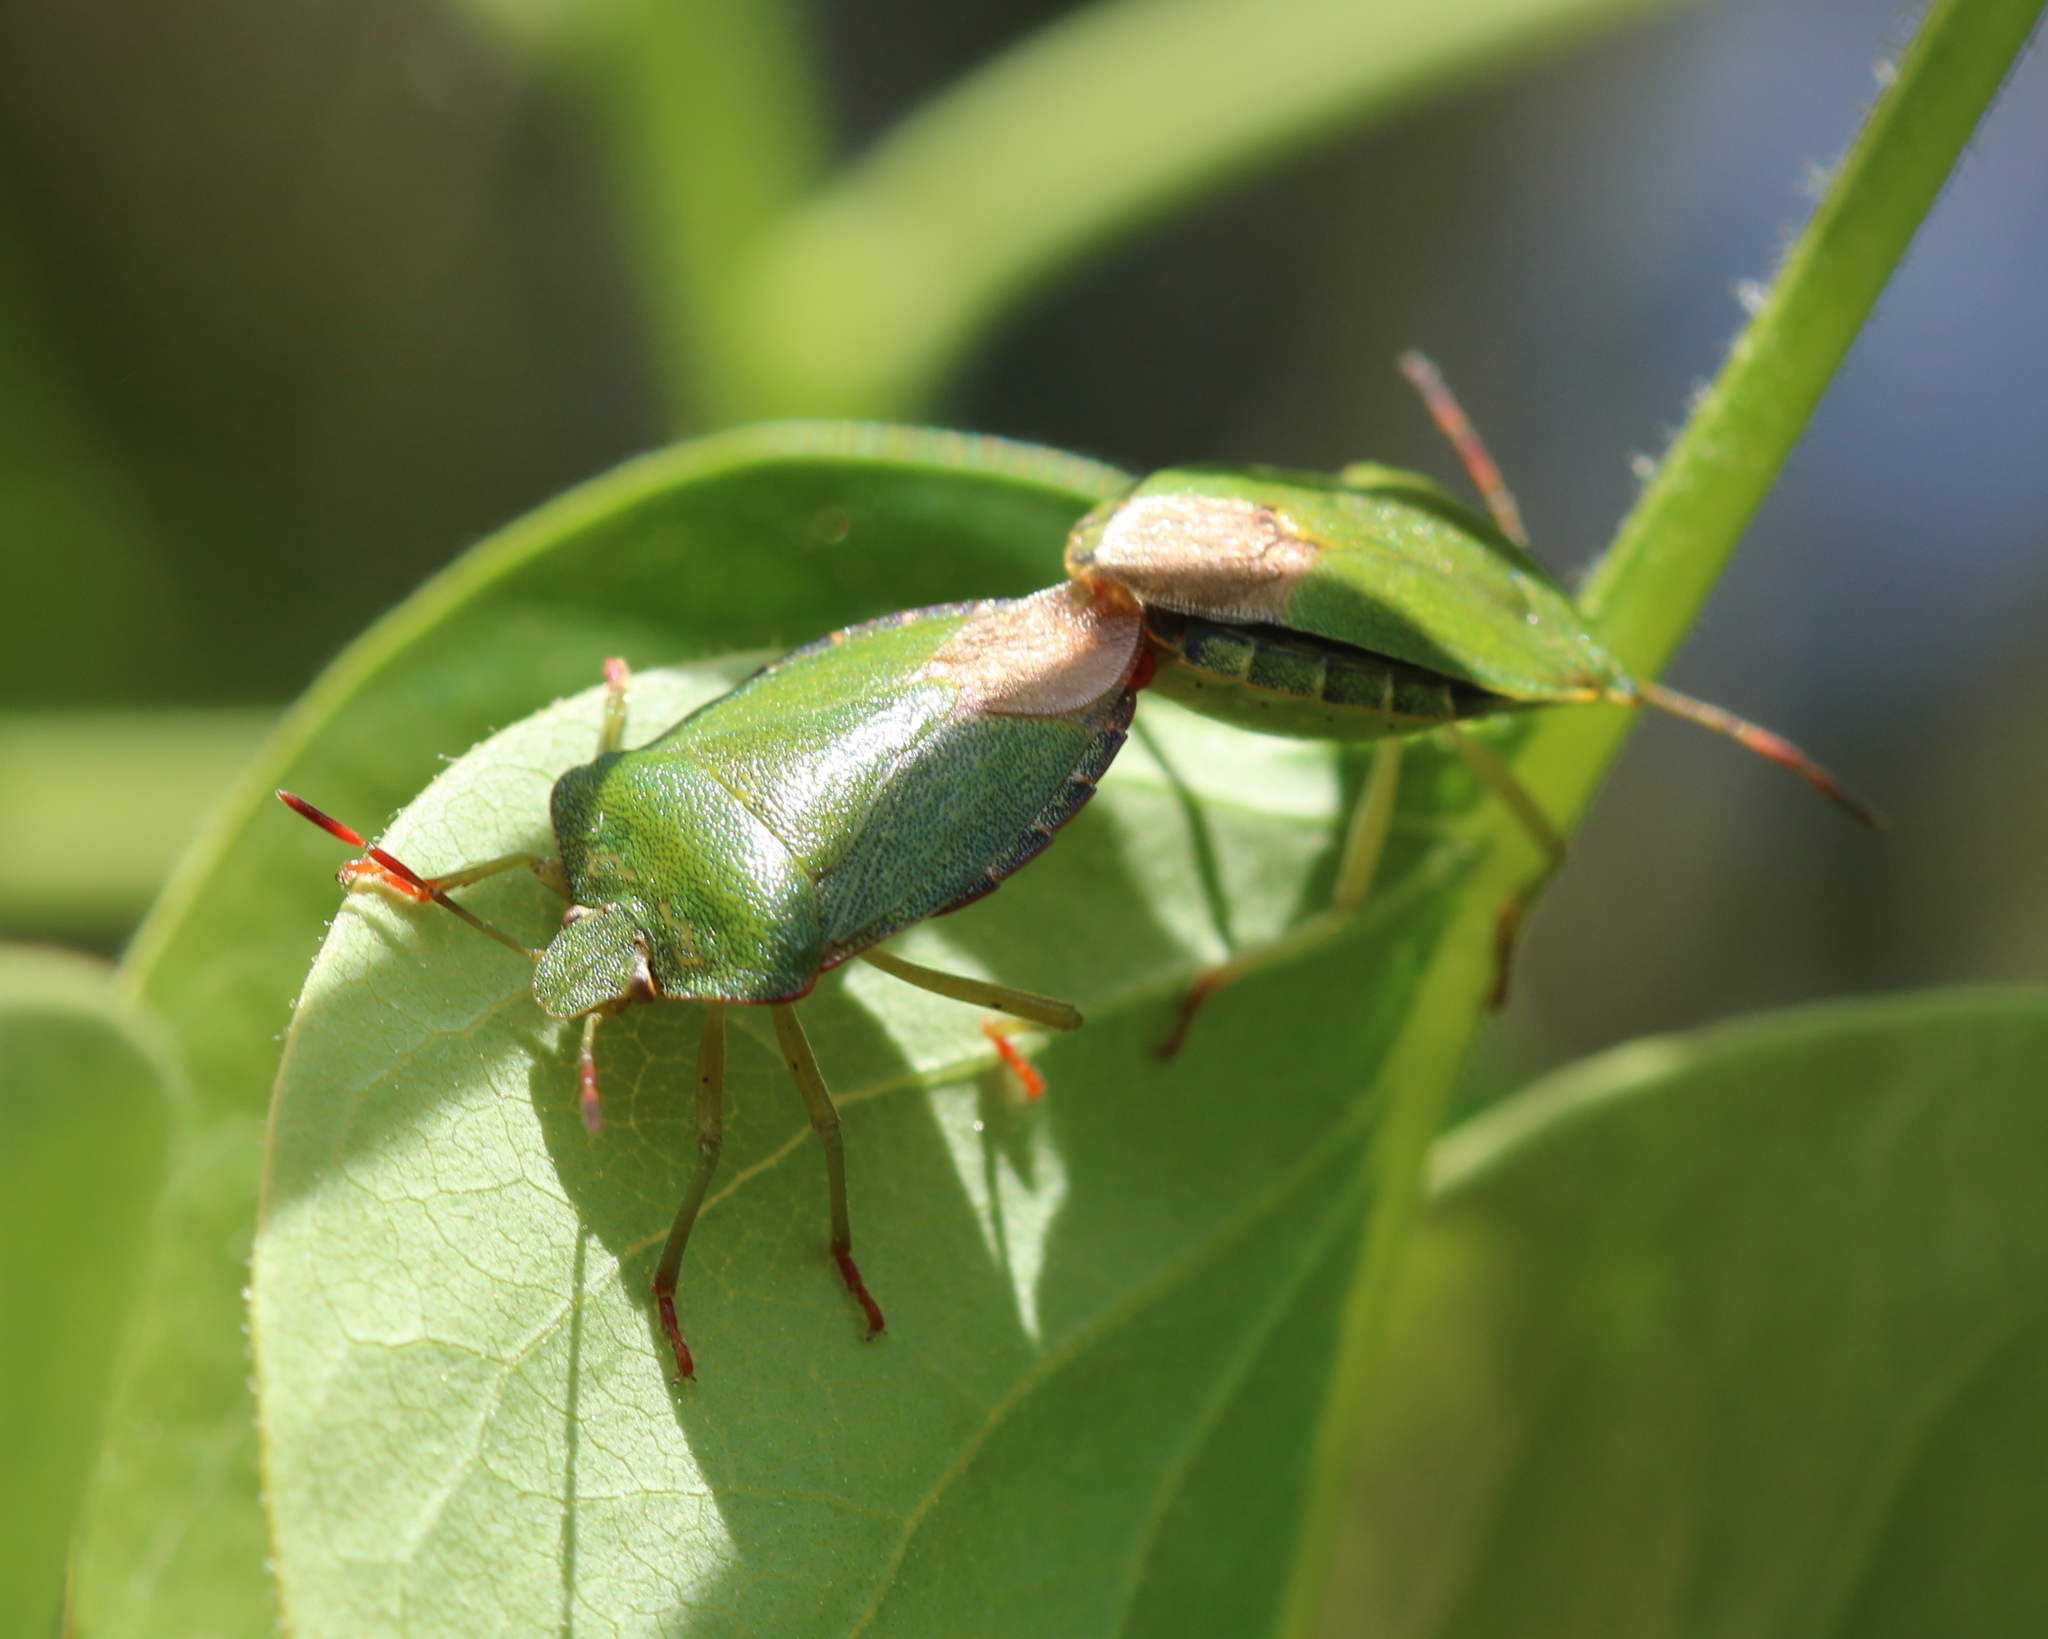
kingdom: Animalia
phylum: Arthropoda
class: Insecta
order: Hemiptera
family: Pentatomidae
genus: Palomena
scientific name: Palomena prasina
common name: Green shieldbug
